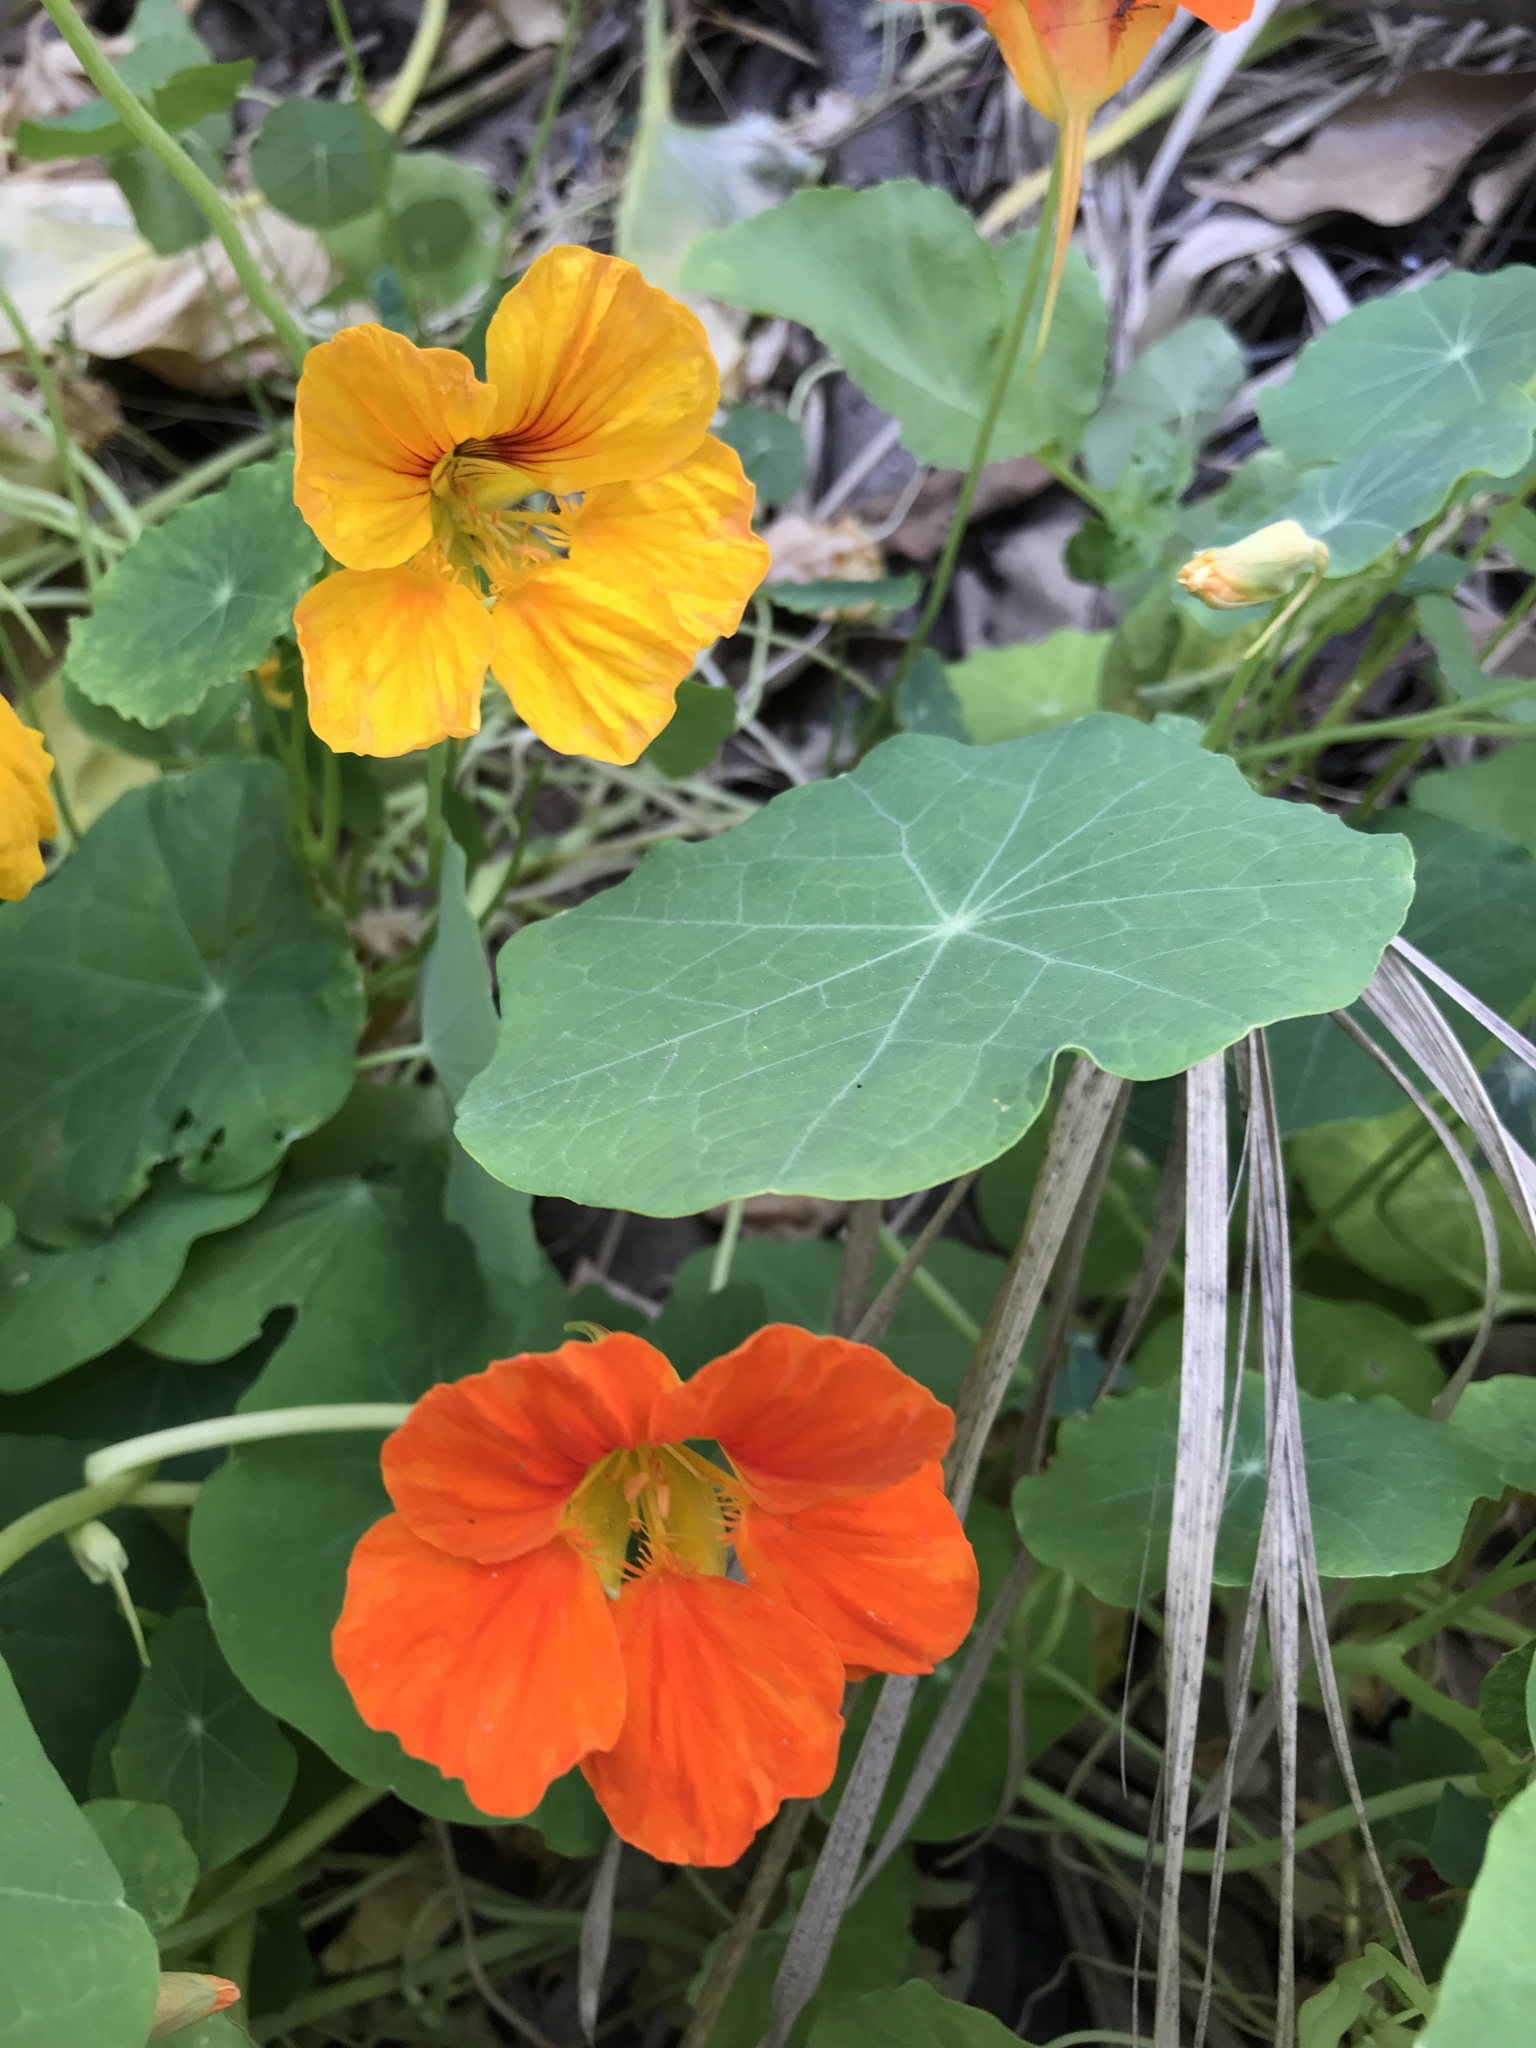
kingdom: Plantae
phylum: Tracheophyta
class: Magnoliopsida
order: Brassicales
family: Tropaeolaceae
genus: Tropaeolum
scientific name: Tropaeolum majus
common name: Nasturtium
